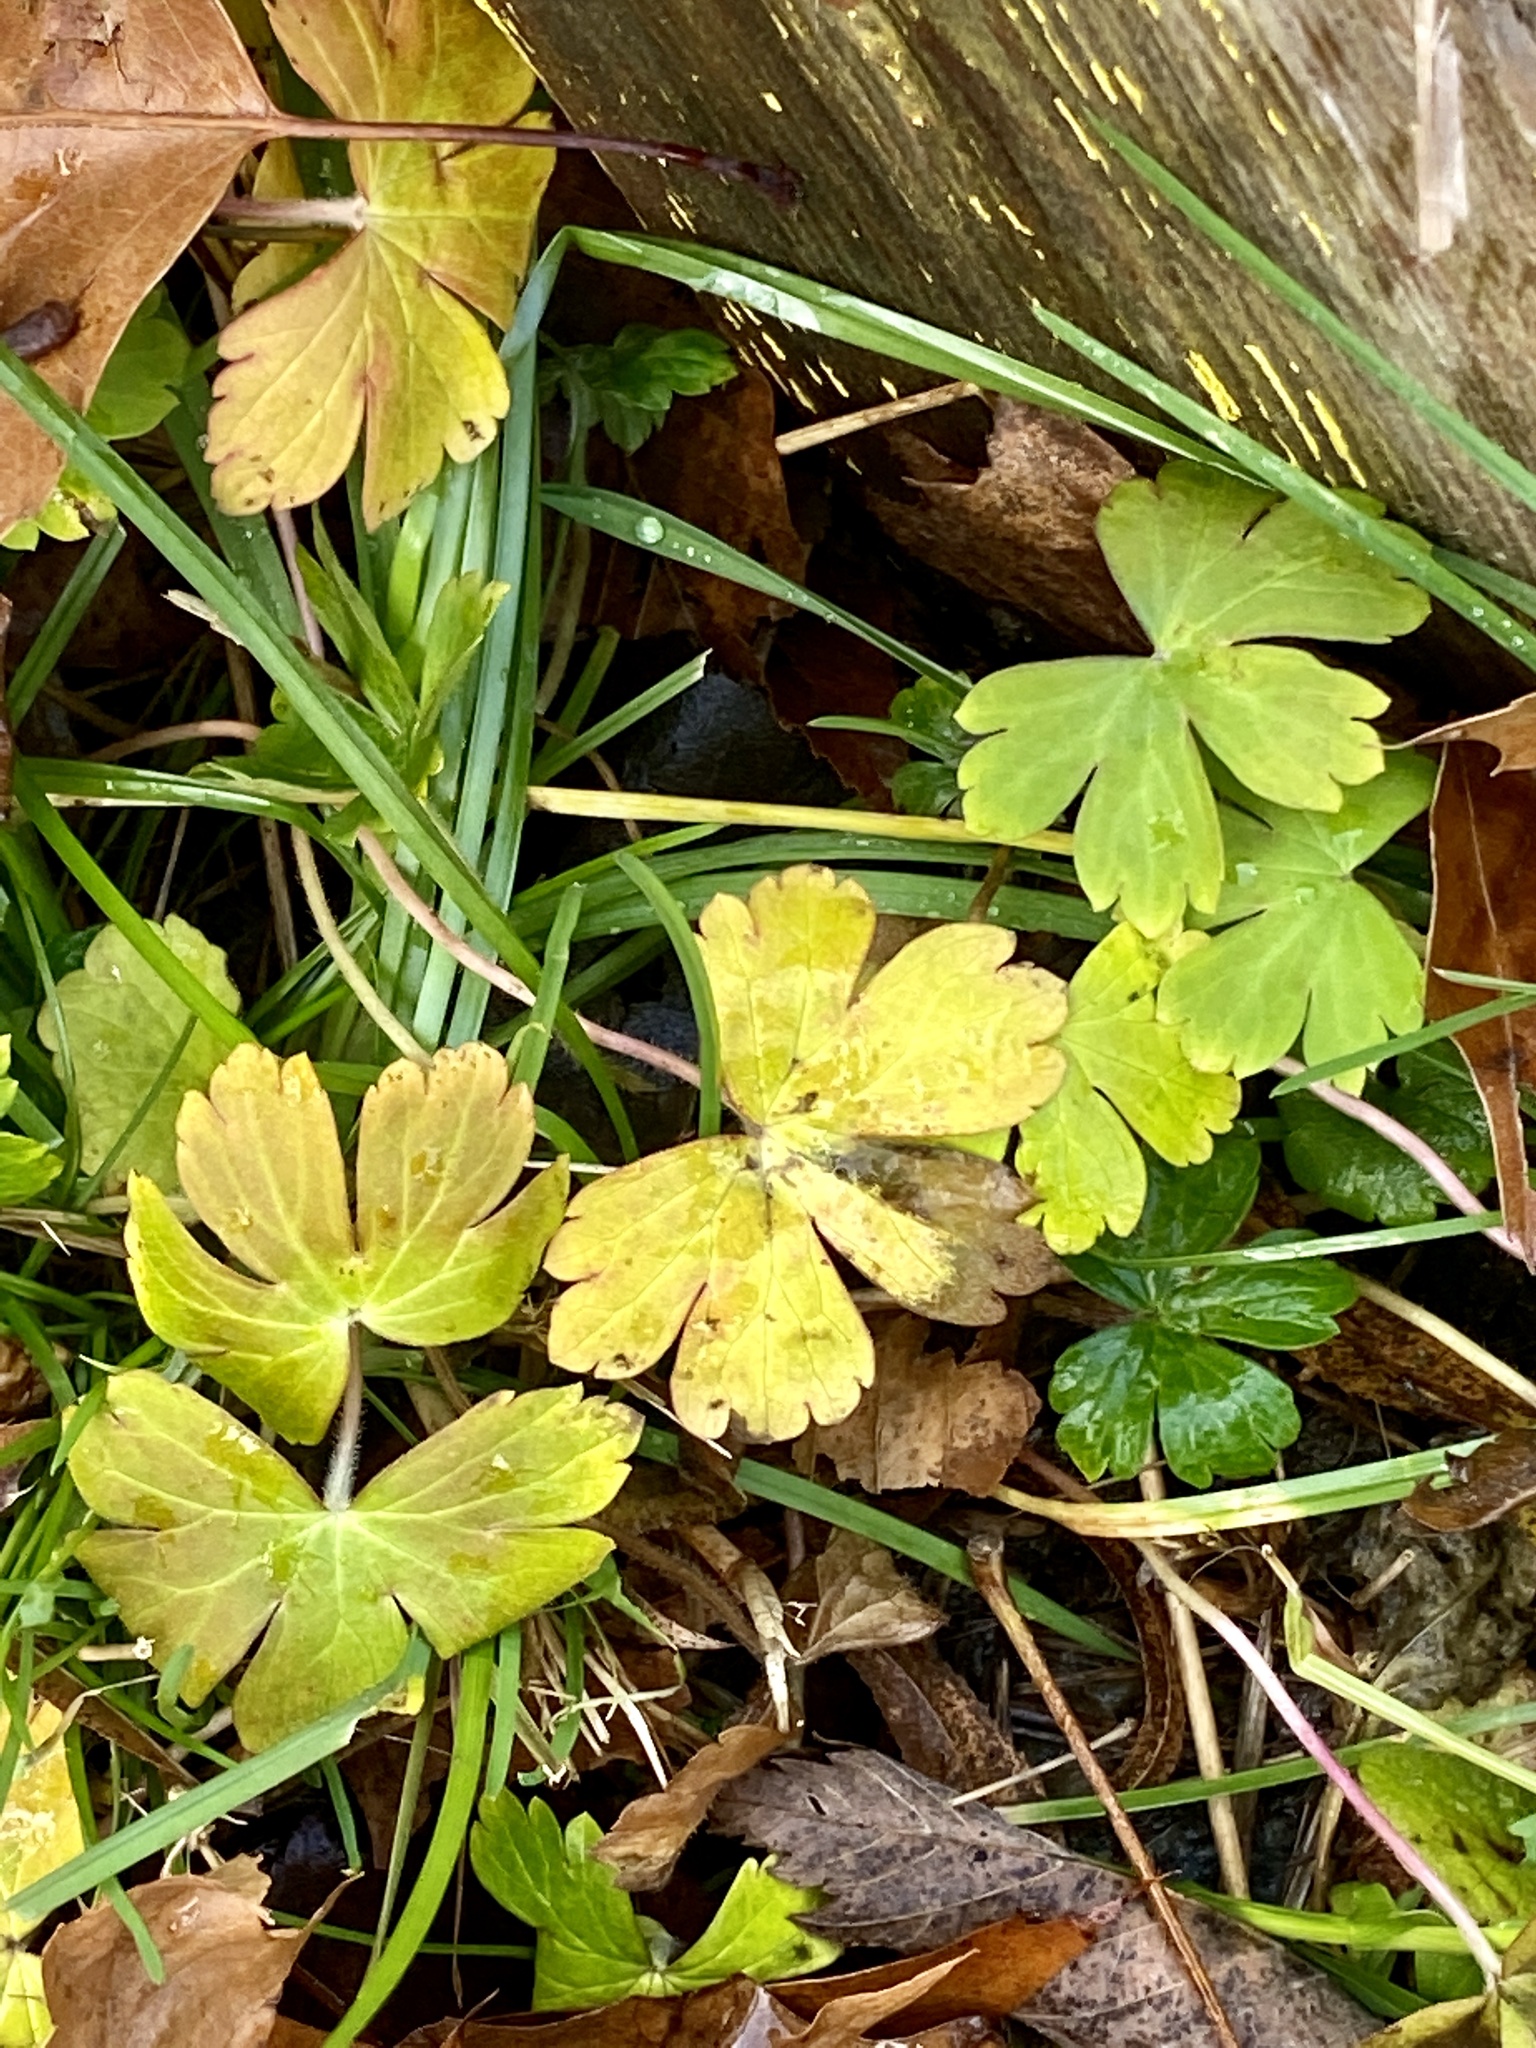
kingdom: Plantae
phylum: Tracheophyta
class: Magnoliopsida
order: Geraniales
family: Geraniaceae
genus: Geranium
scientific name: Geranium thunbergii
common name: Dewdrop crane's-bill
